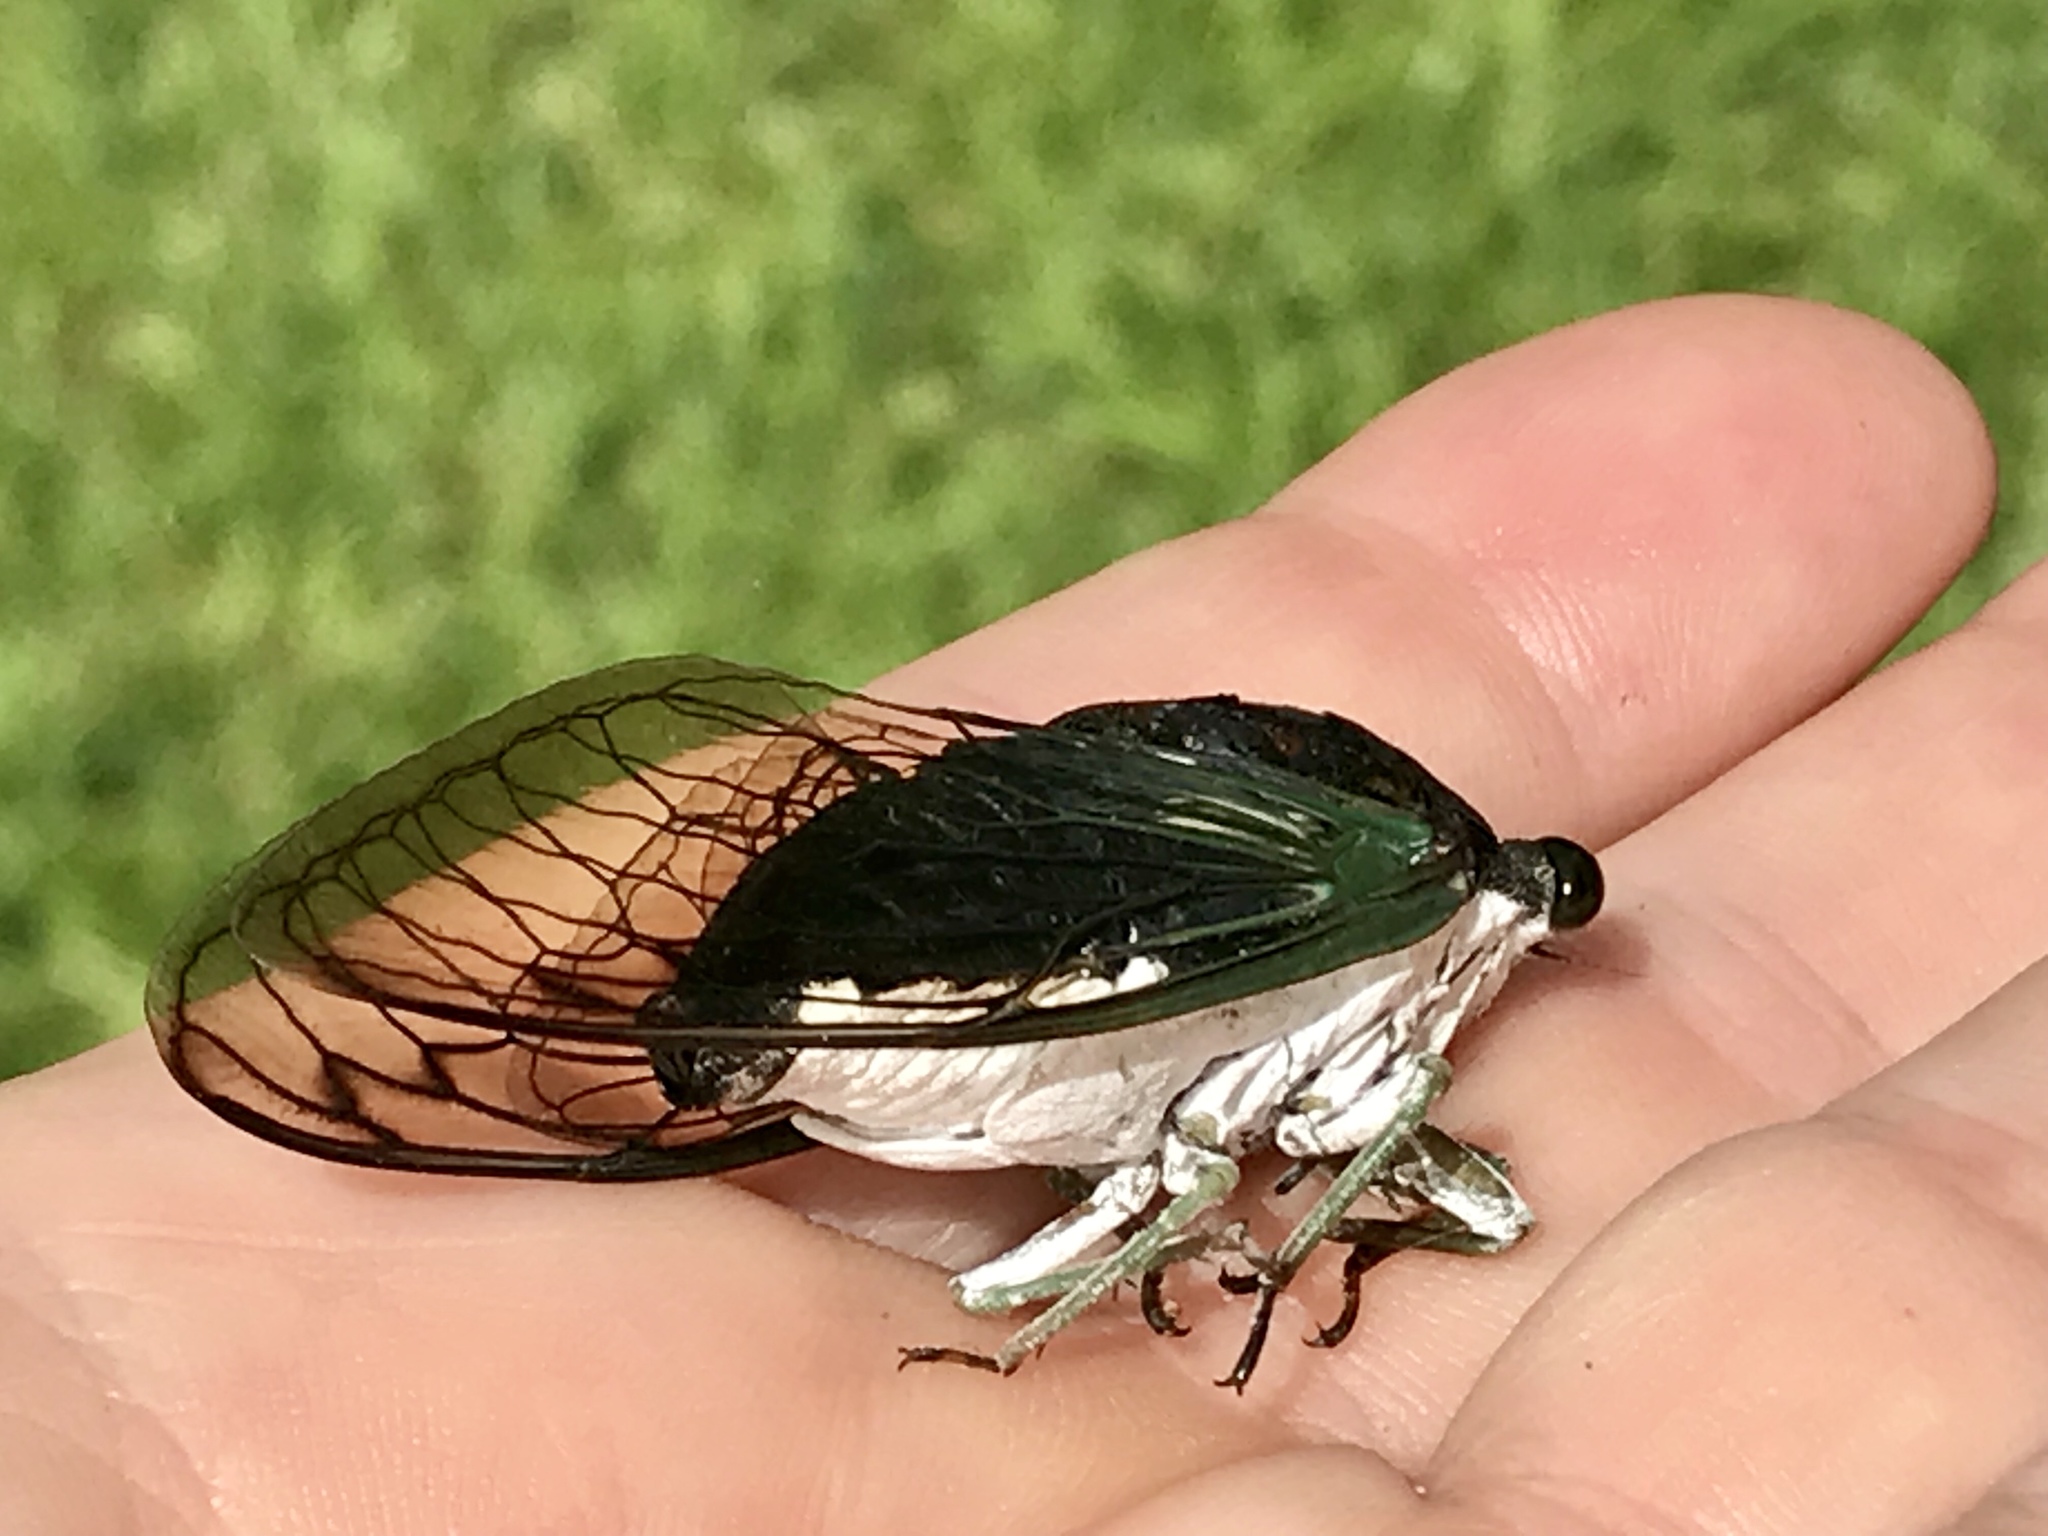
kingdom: Animalia
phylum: Arthropoda
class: Insecta
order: Hemiptera
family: Cicadidae
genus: Neotibicen
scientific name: Neotibicen tibicen
